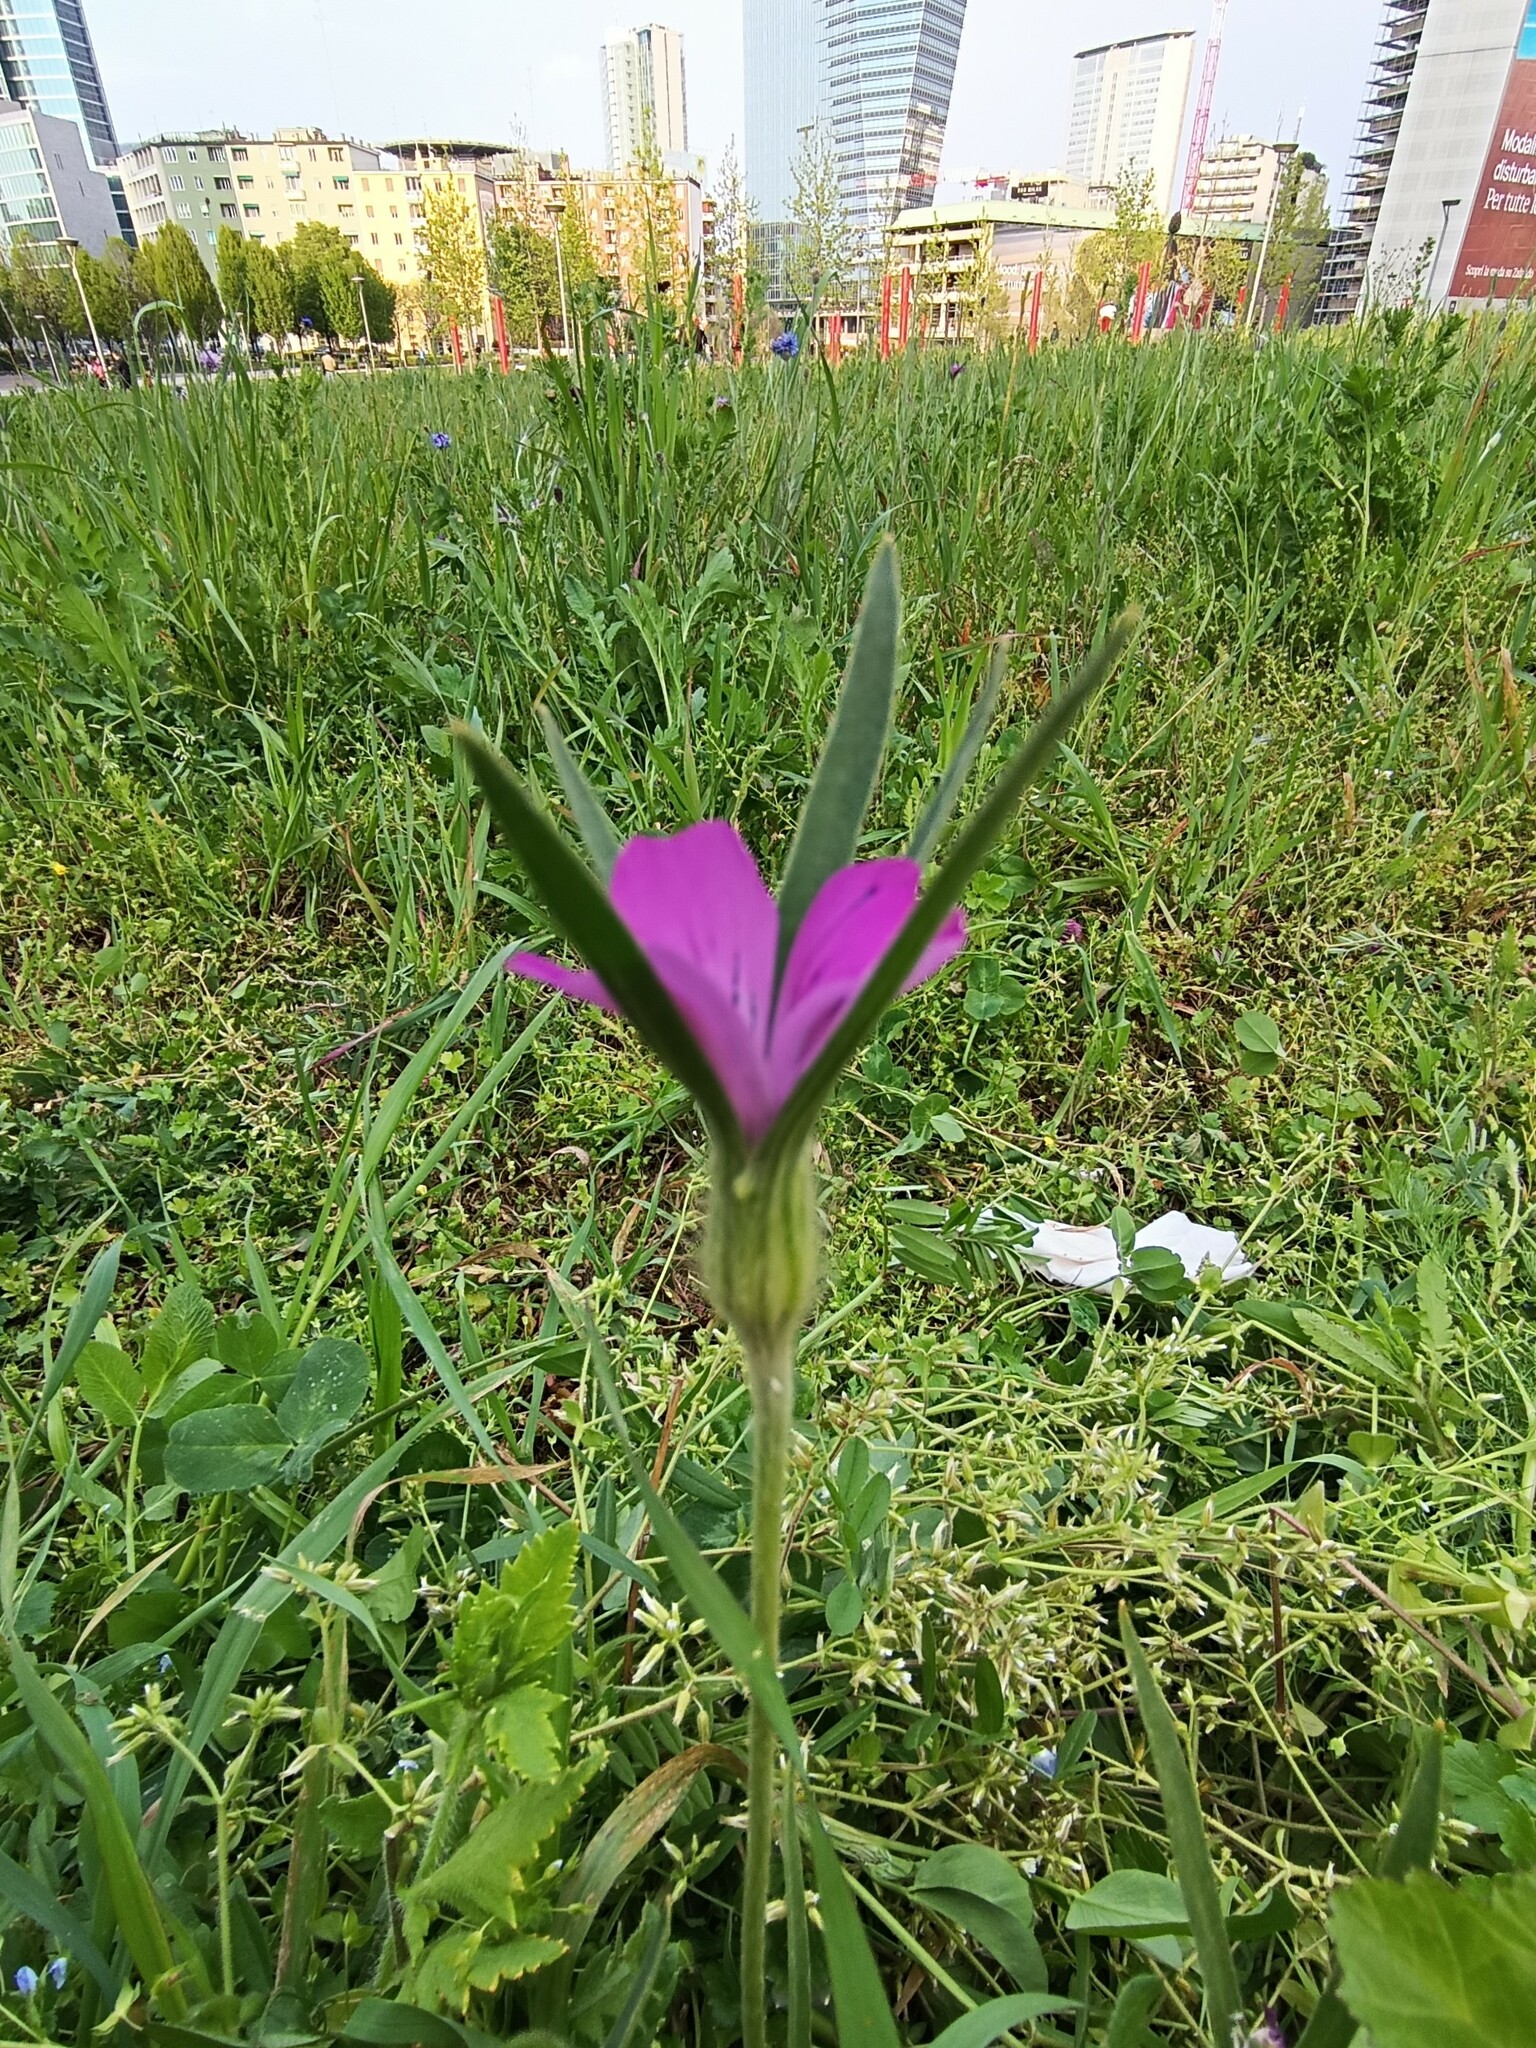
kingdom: Plantae
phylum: Tracheophyta
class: Magnoliopsida
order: Caryophyllales
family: Caryophyllaceae
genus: Agrostemma
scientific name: Agrostemma githago
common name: Common corncockle
